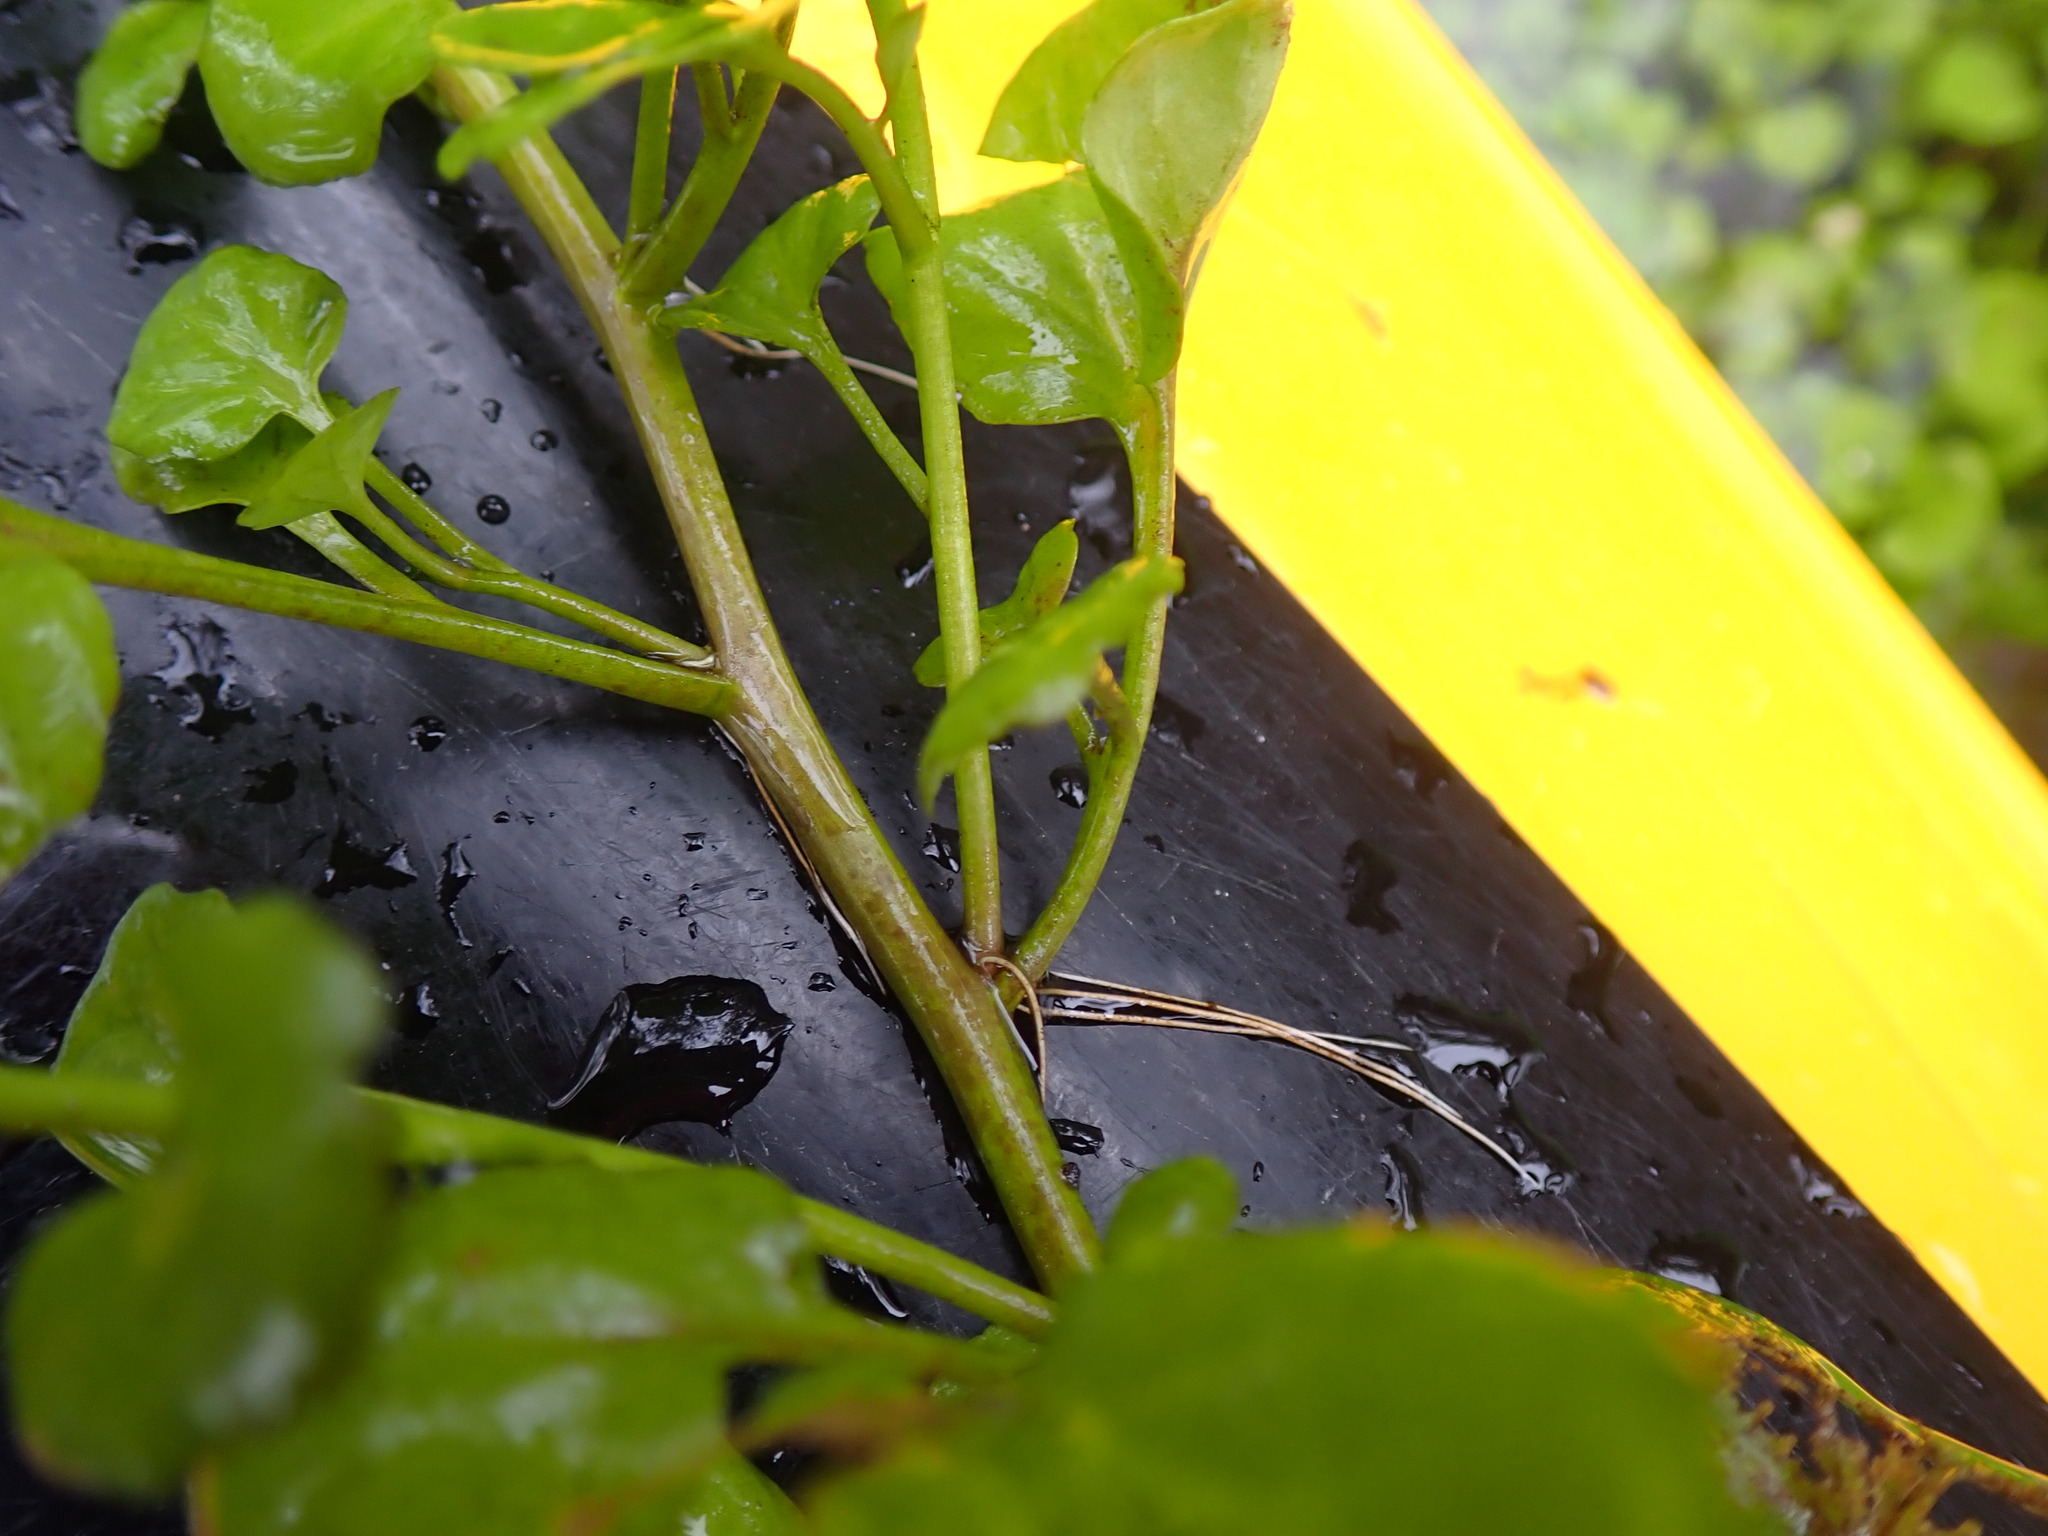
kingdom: Plantae
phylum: Tracheophyta
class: Magnoliopsida
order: Brassicales
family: Brassicaceae
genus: Nasturtium
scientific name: Nasturtium floridanum
